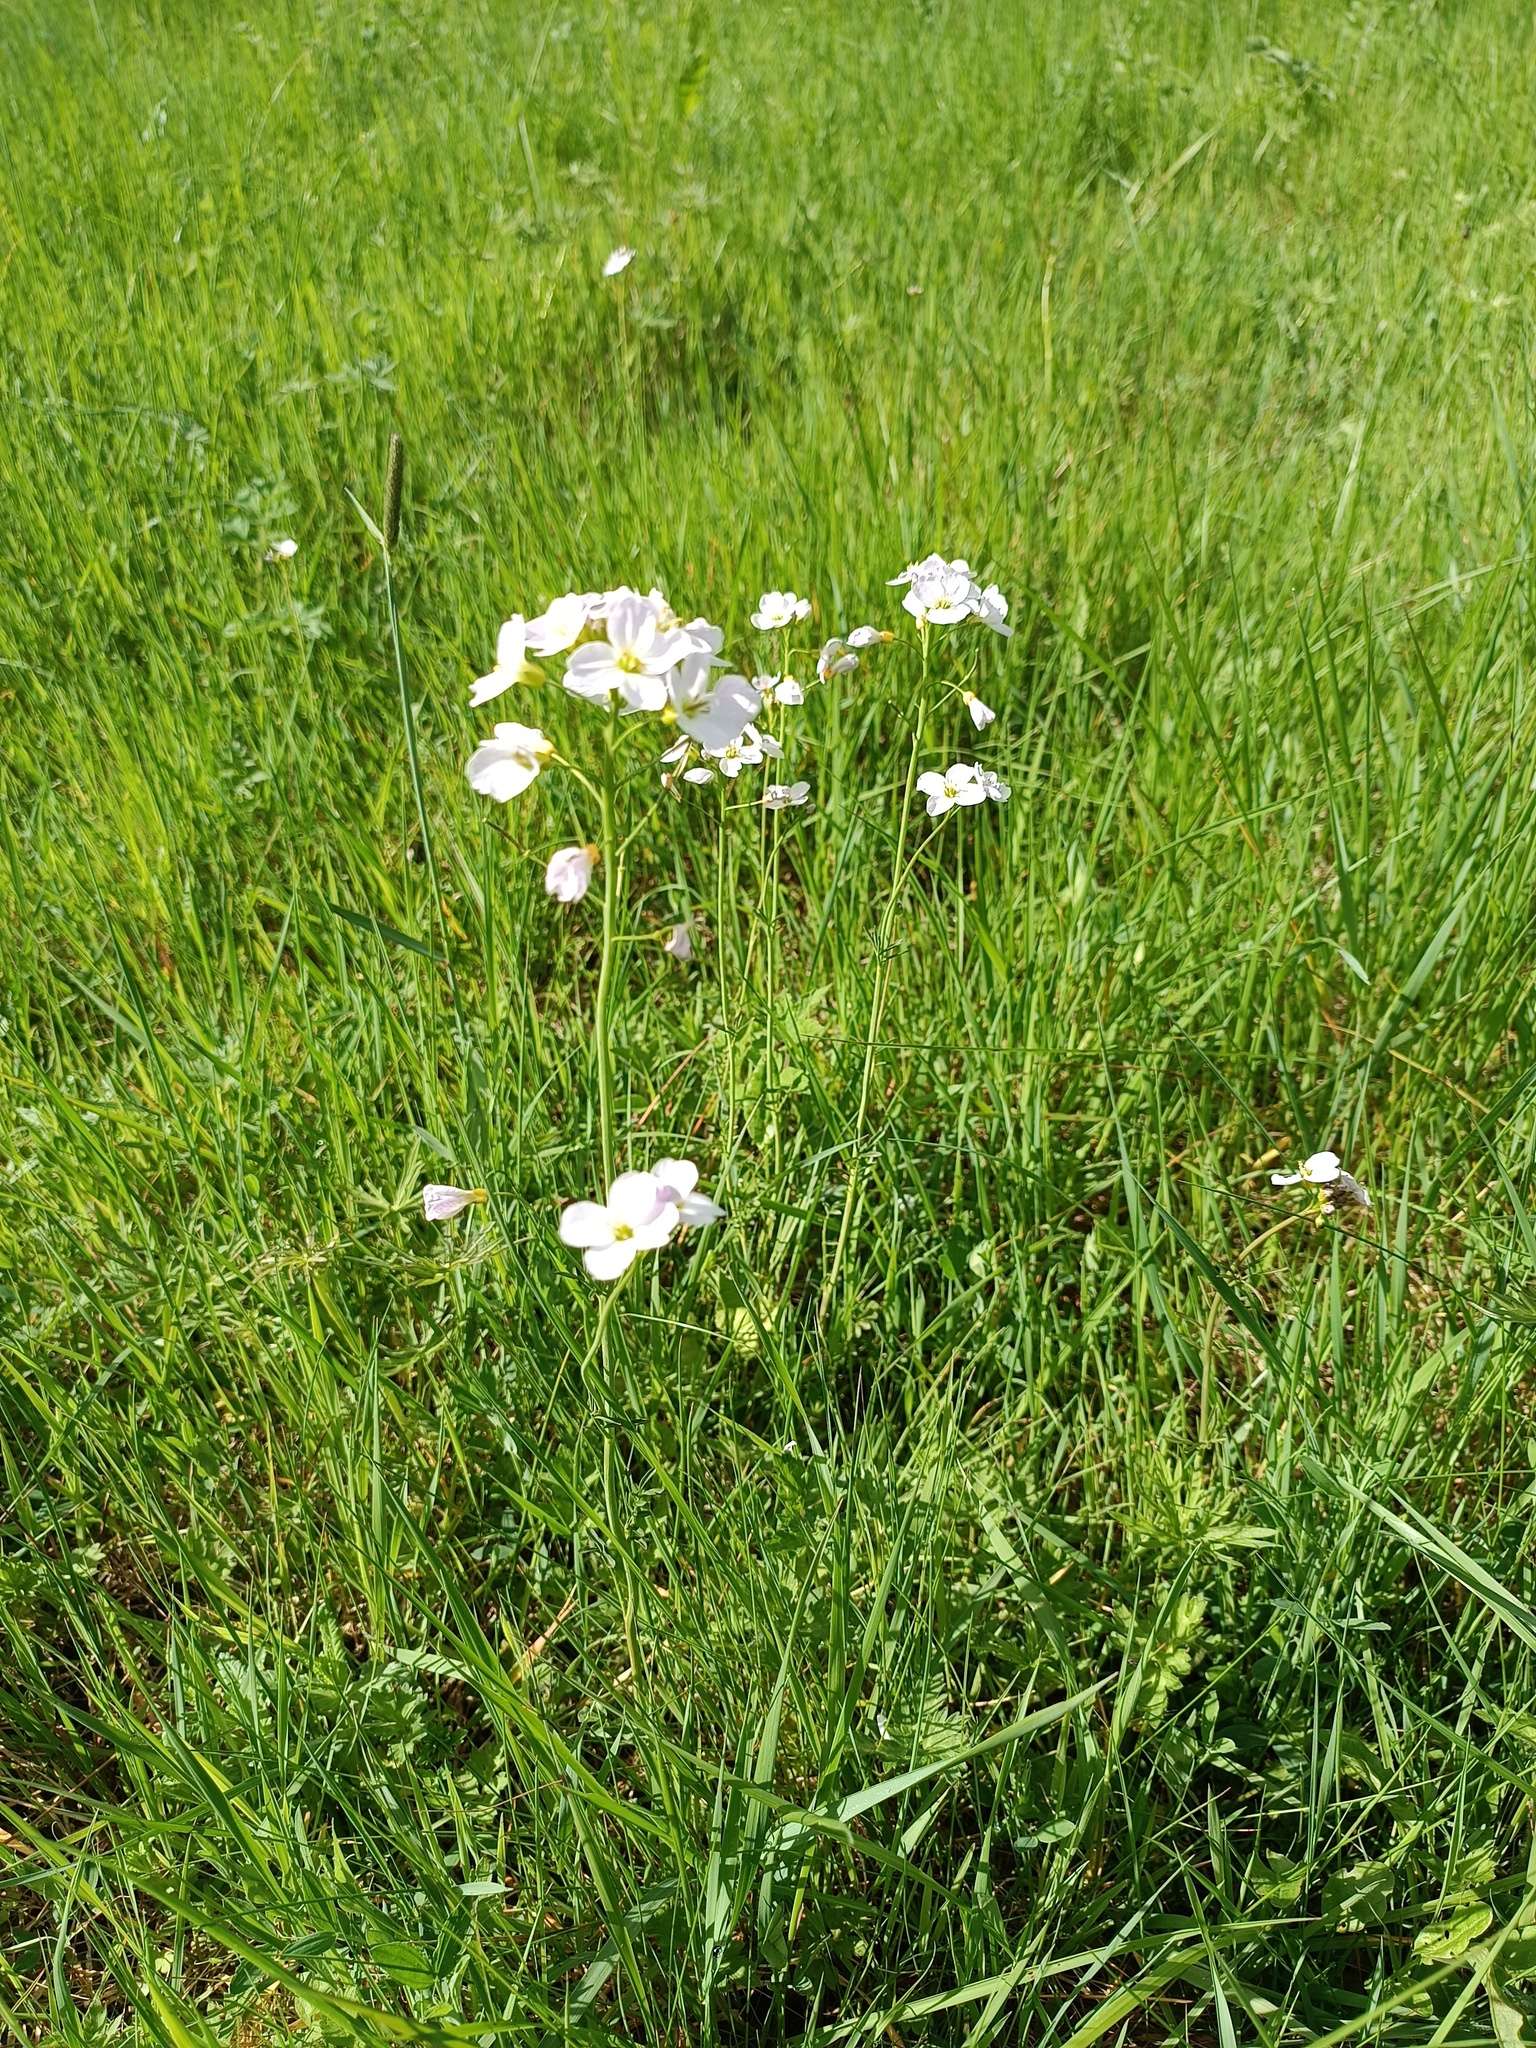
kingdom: Plantae
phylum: Tracheophyta
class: Magnoliopsida
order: Brassicales
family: Brassicaceae
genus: Cardamine
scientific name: Cardamine pratensis
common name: Cuckoo flower
